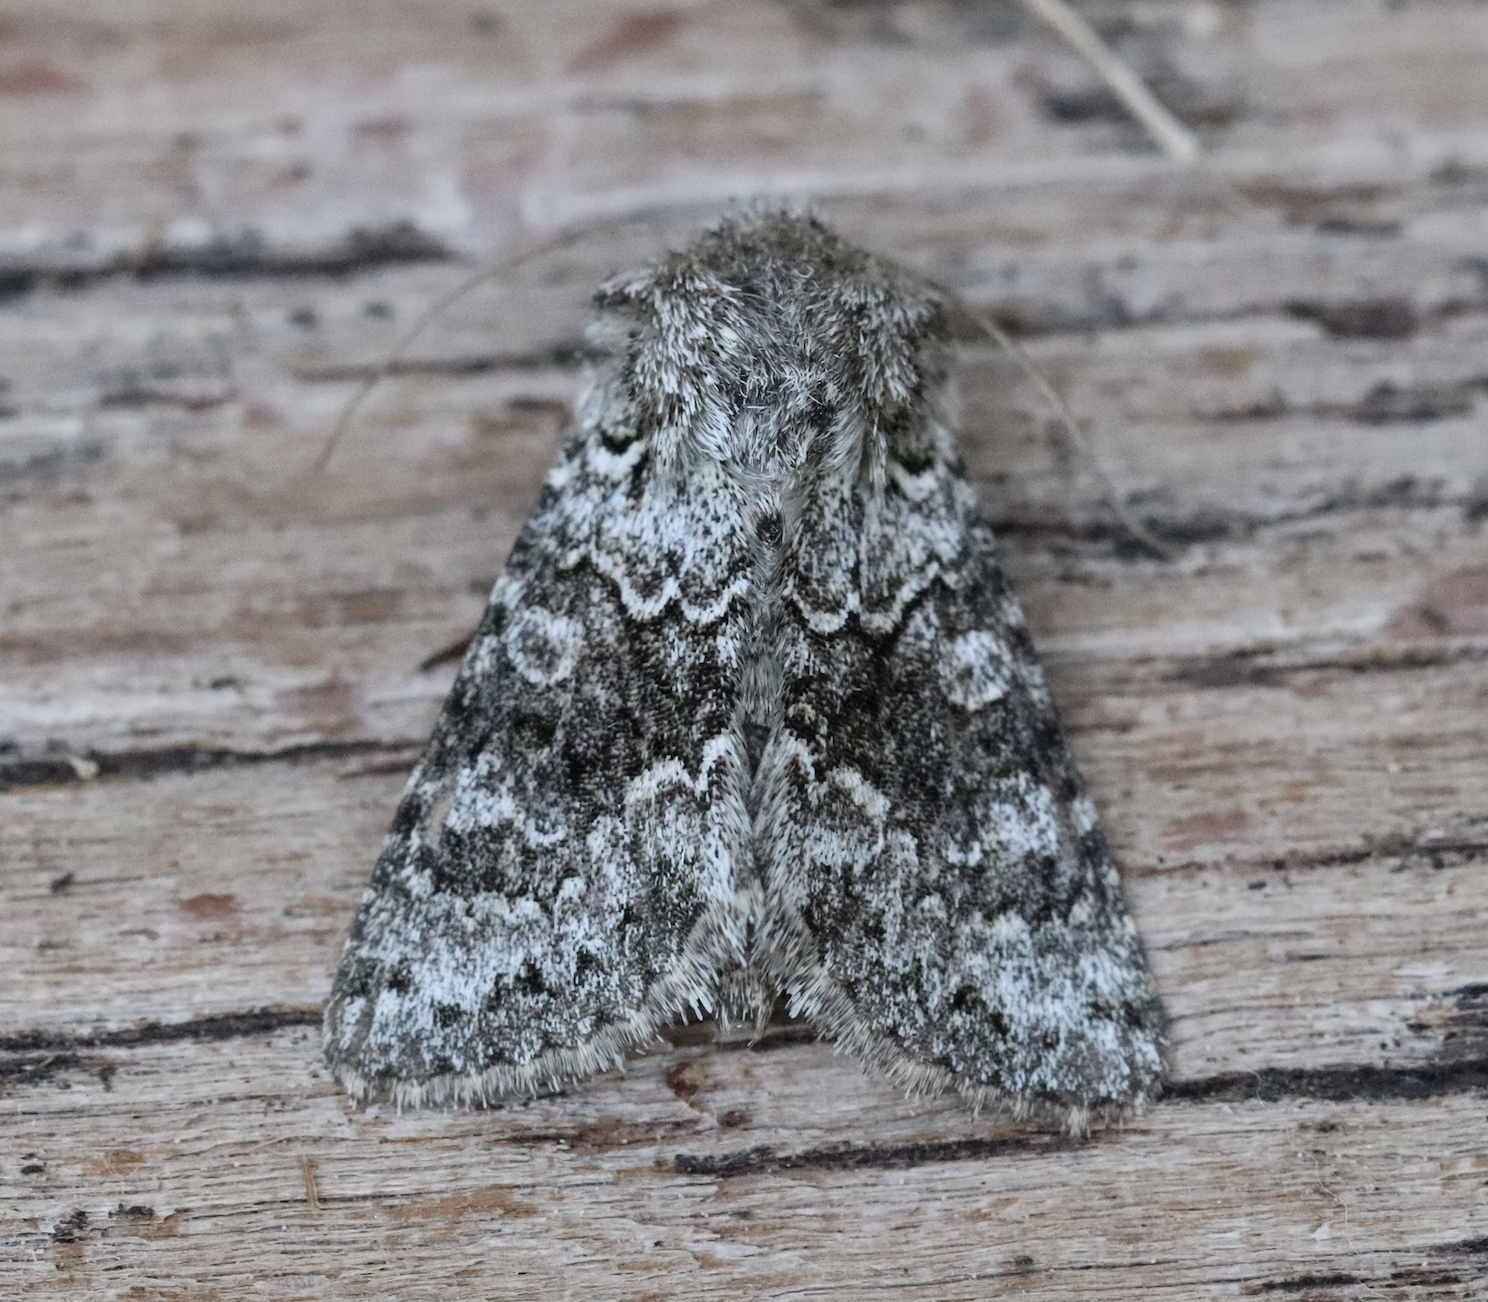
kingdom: Animalia
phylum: Arthropoda
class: Insecta
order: Lepidoptera
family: Noctuidae
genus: Hecatera
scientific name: Hecatera bicolorata
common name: Broad-barred white
